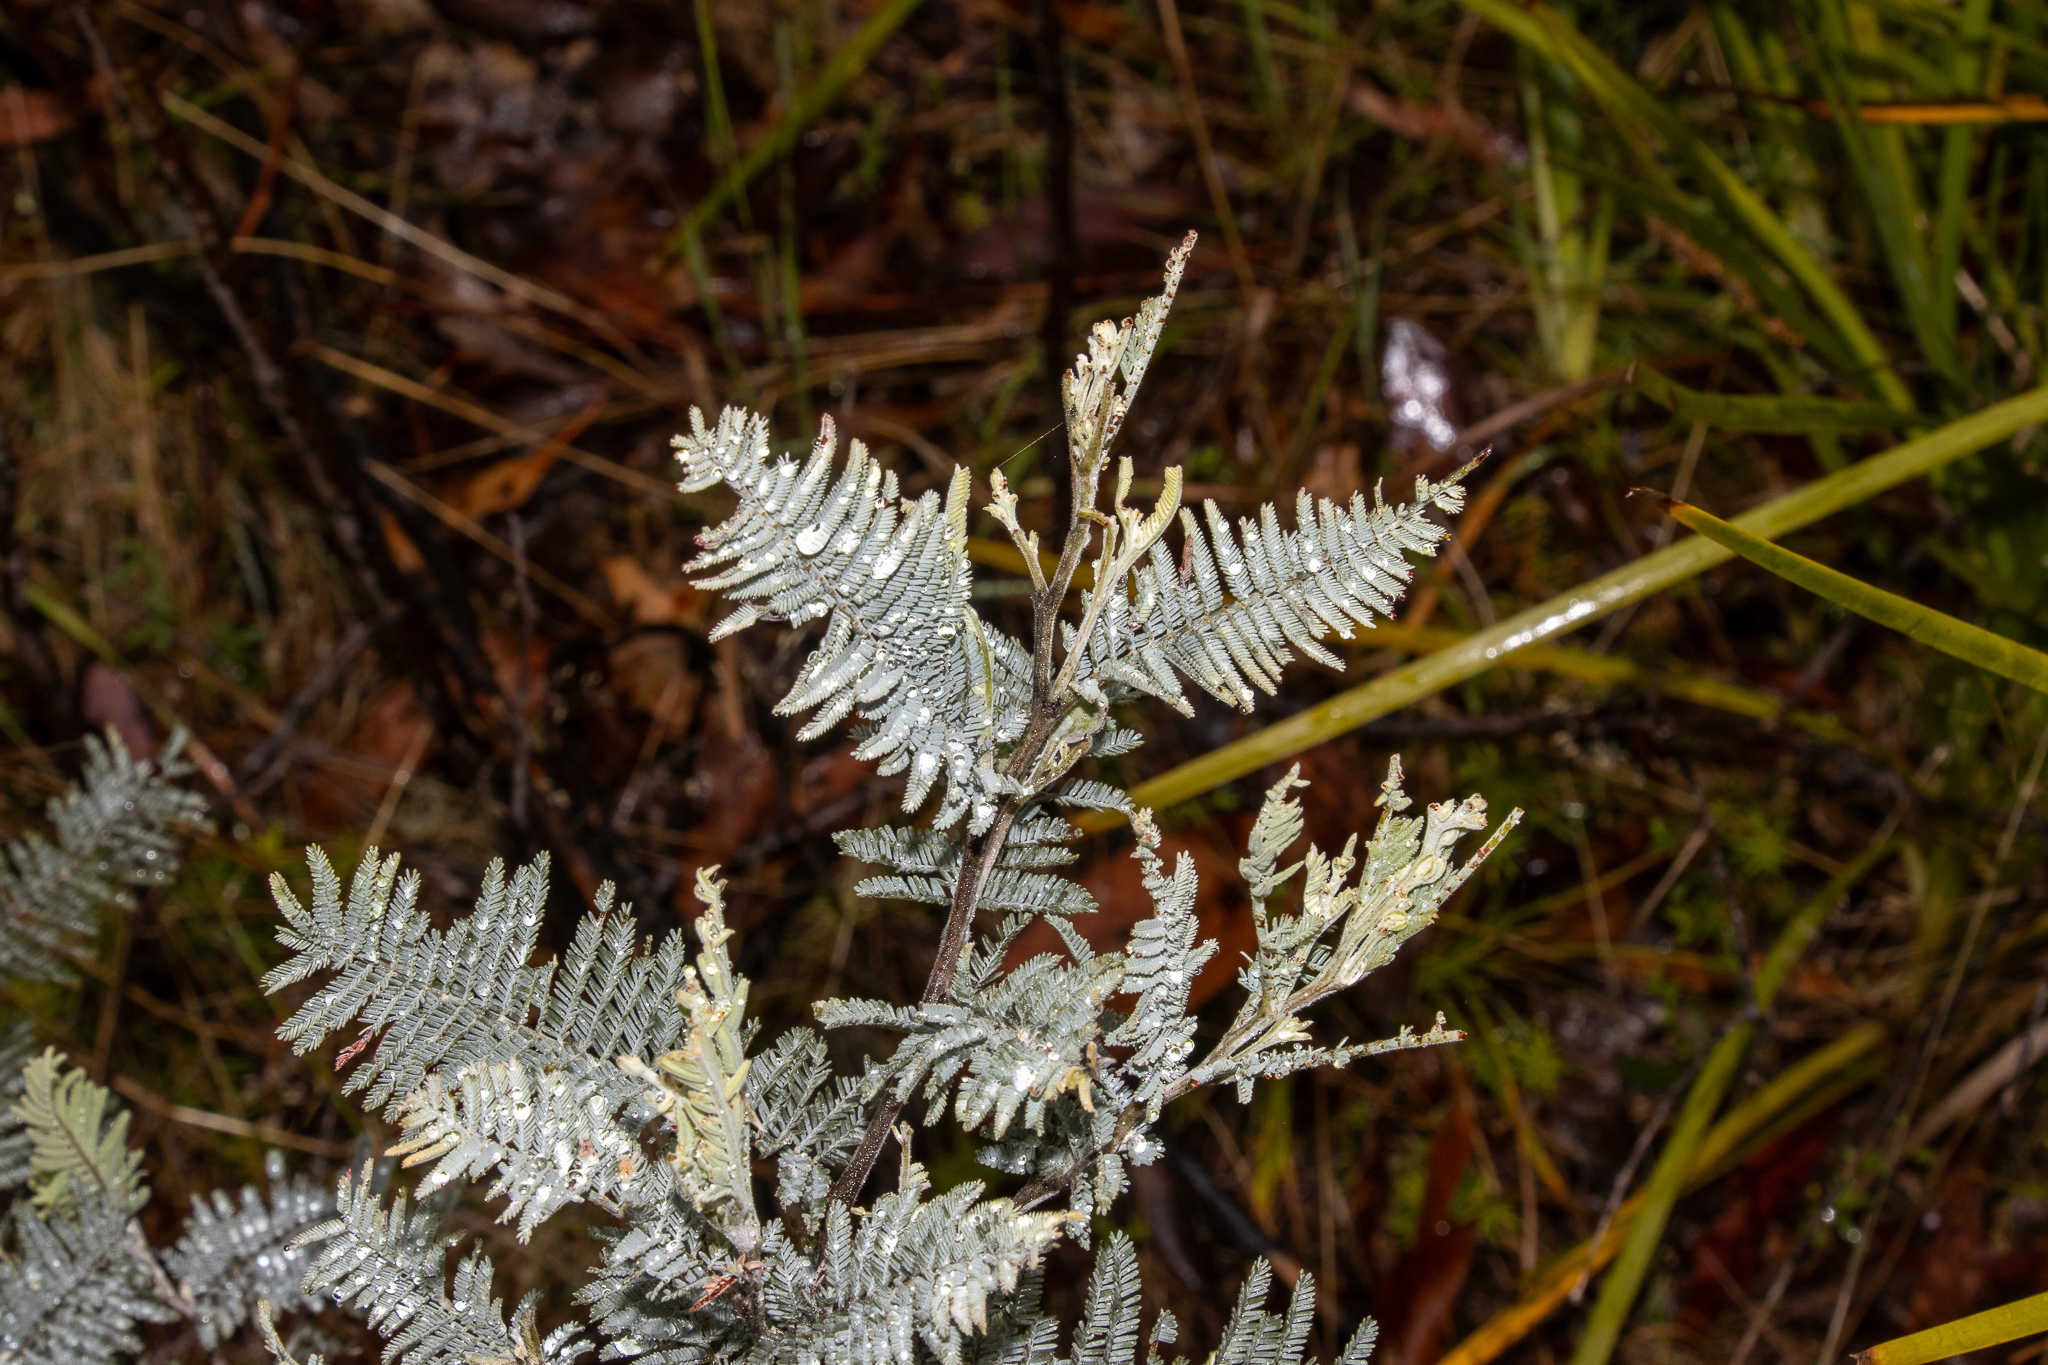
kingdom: Plantae
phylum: Tracheophyta
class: Magnoliopsida
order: Fabales
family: Fabaceae
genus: Acacia
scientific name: Acacia baileyana
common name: Cootamundra wattle
